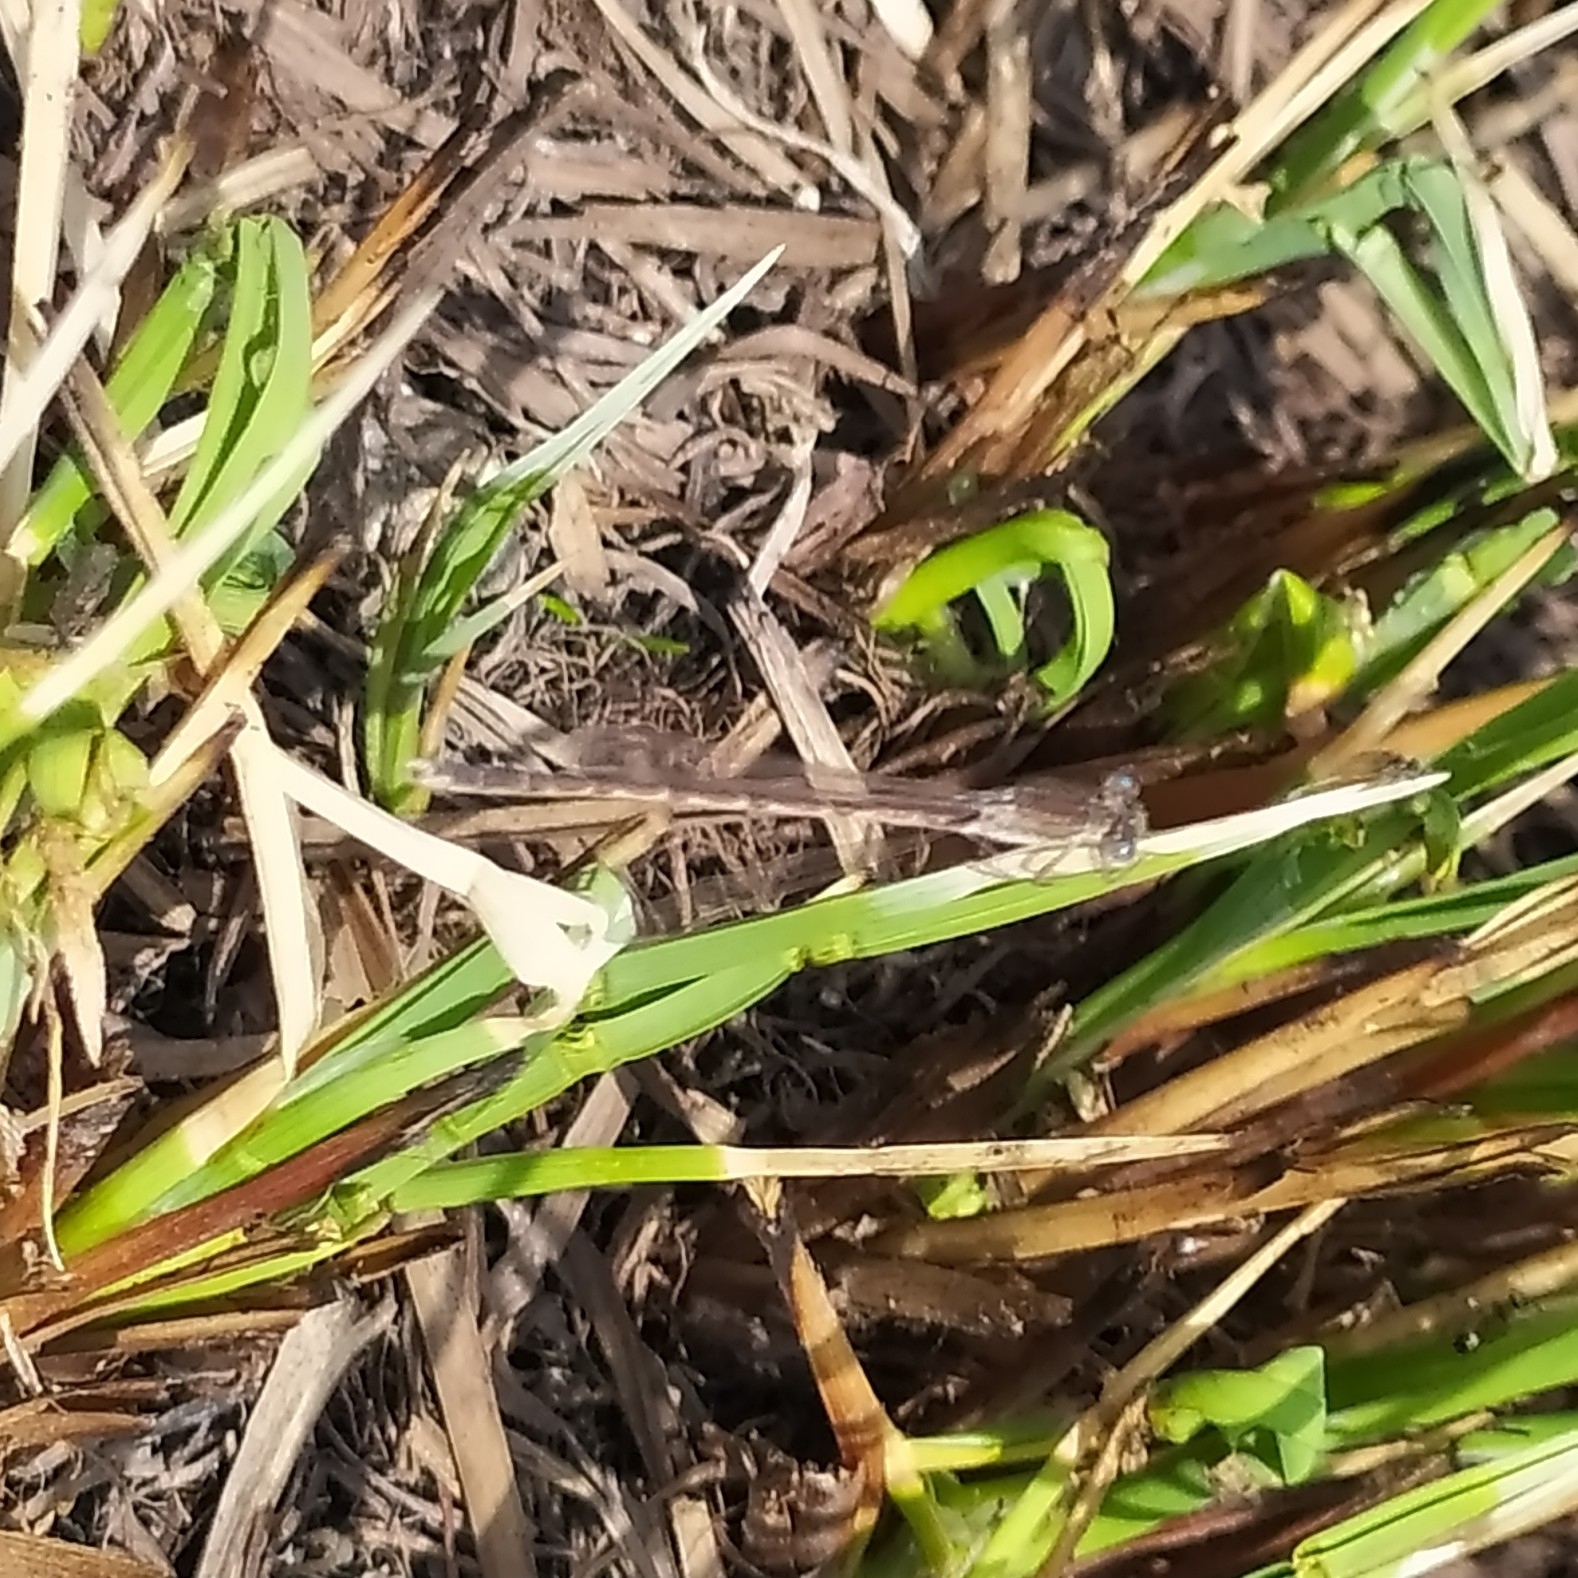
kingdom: Animalia
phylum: Arthropoda
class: Insecta
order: Odonata
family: Lestidae
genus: Sympecma
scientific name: Sympecma paedisca
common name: Siberian winter damsel
